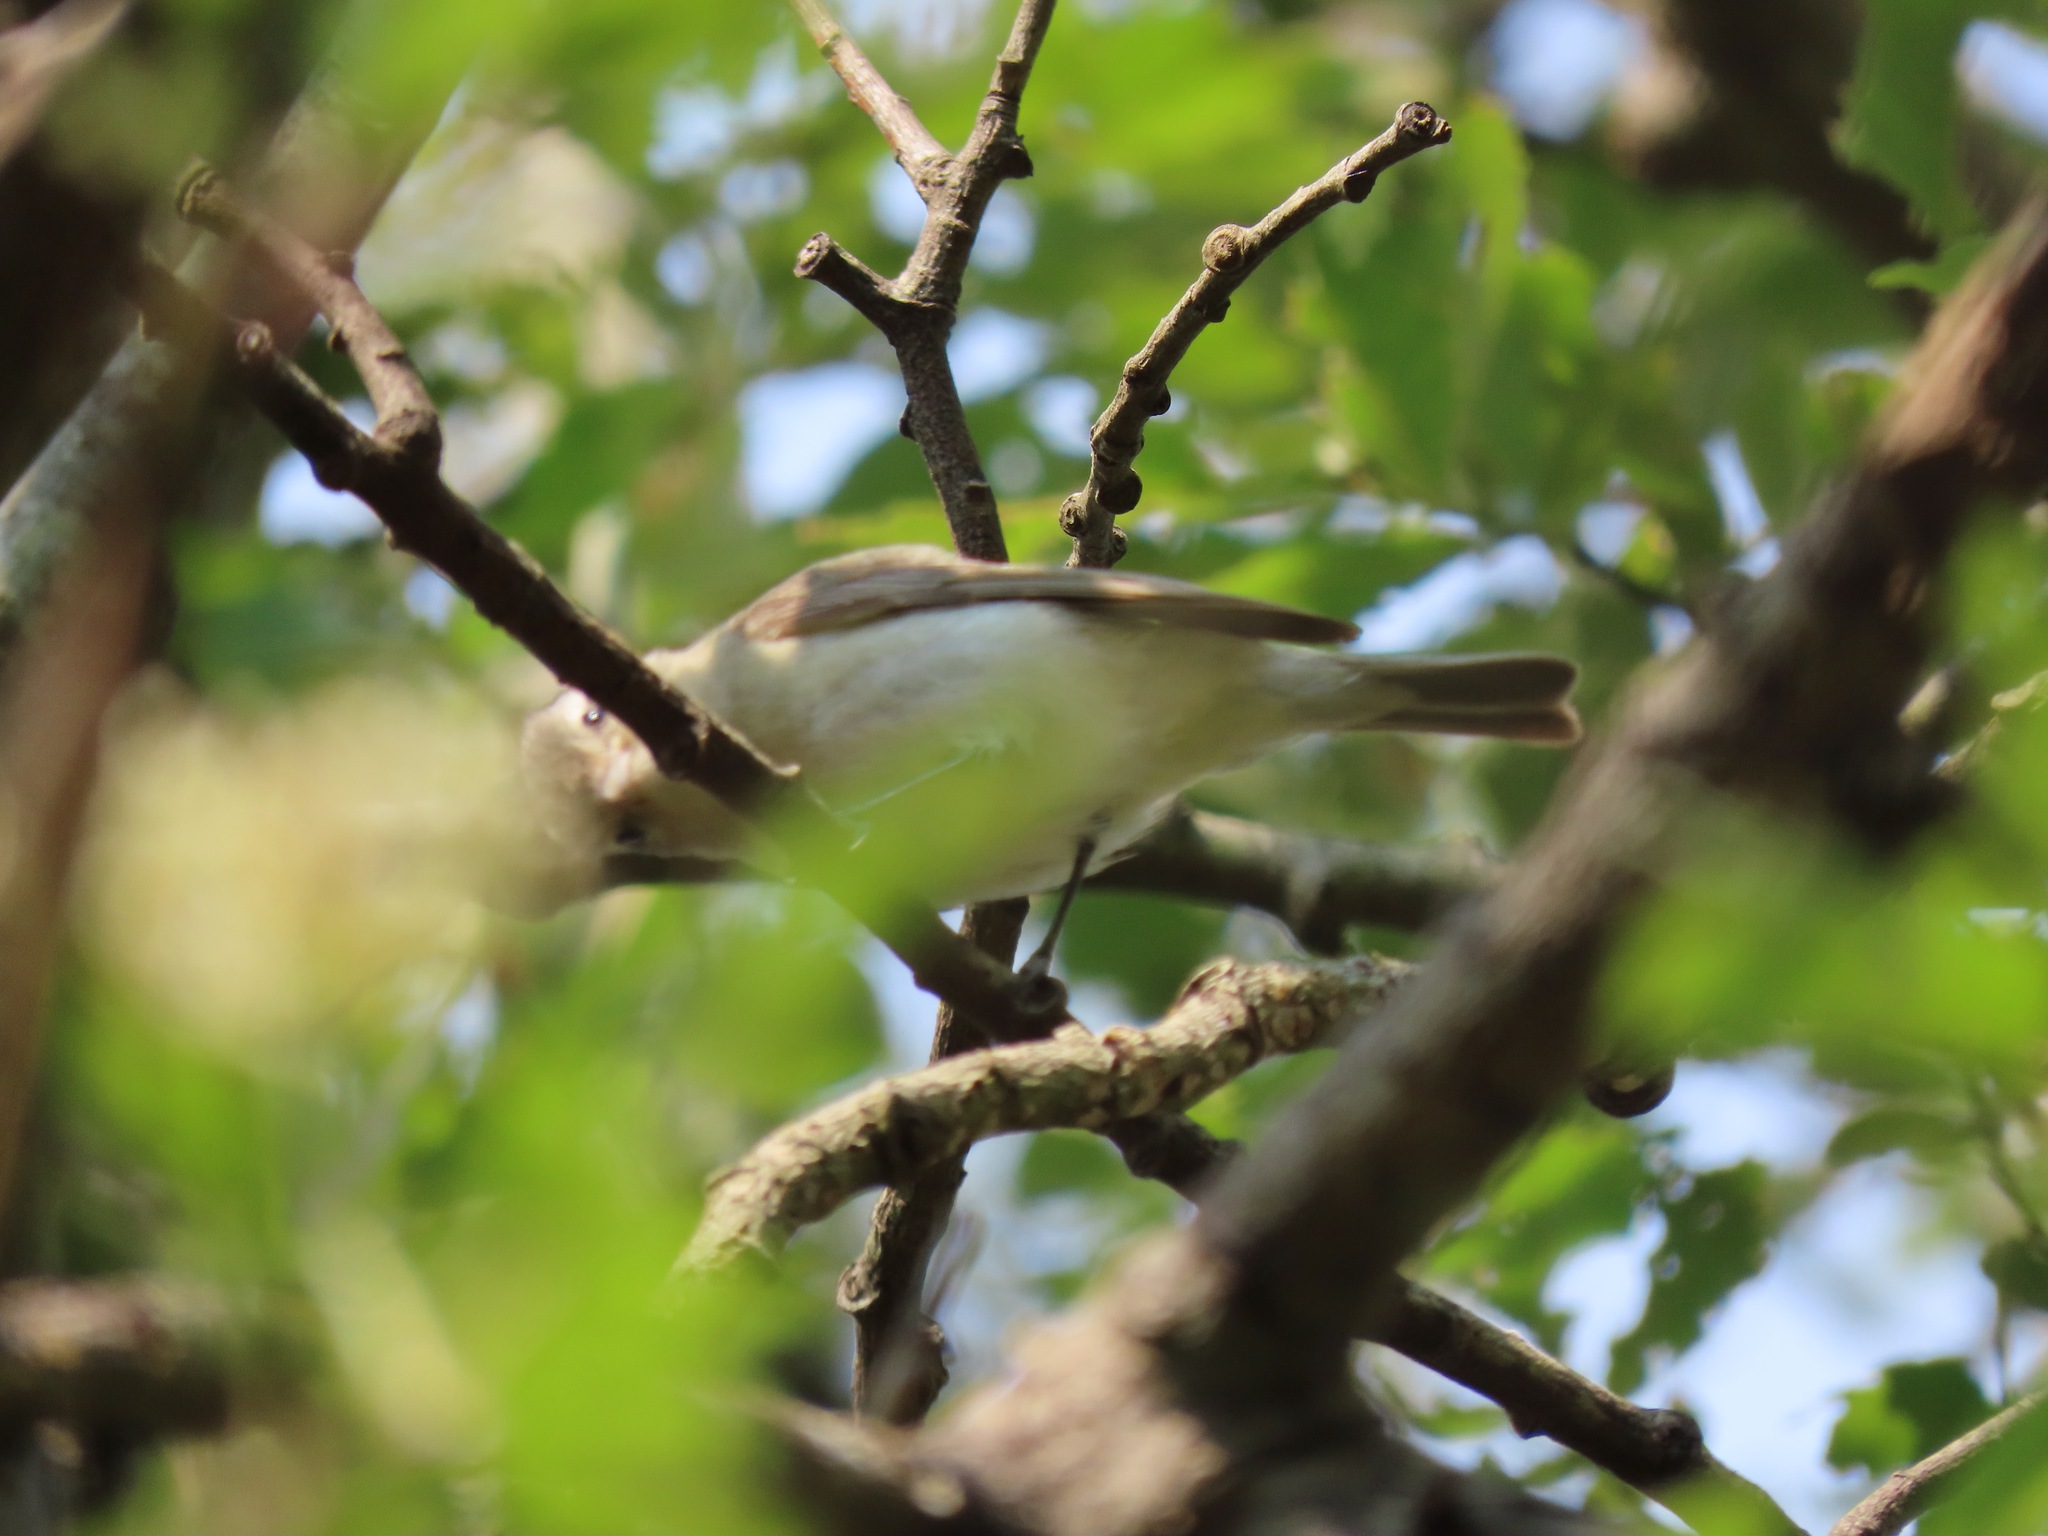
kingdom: Animalia
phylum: Chordata
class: Aves
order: Passeriformes
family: Vireonidae
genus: Vireo
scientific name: Vireo gilvus
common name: Warbling vireo
